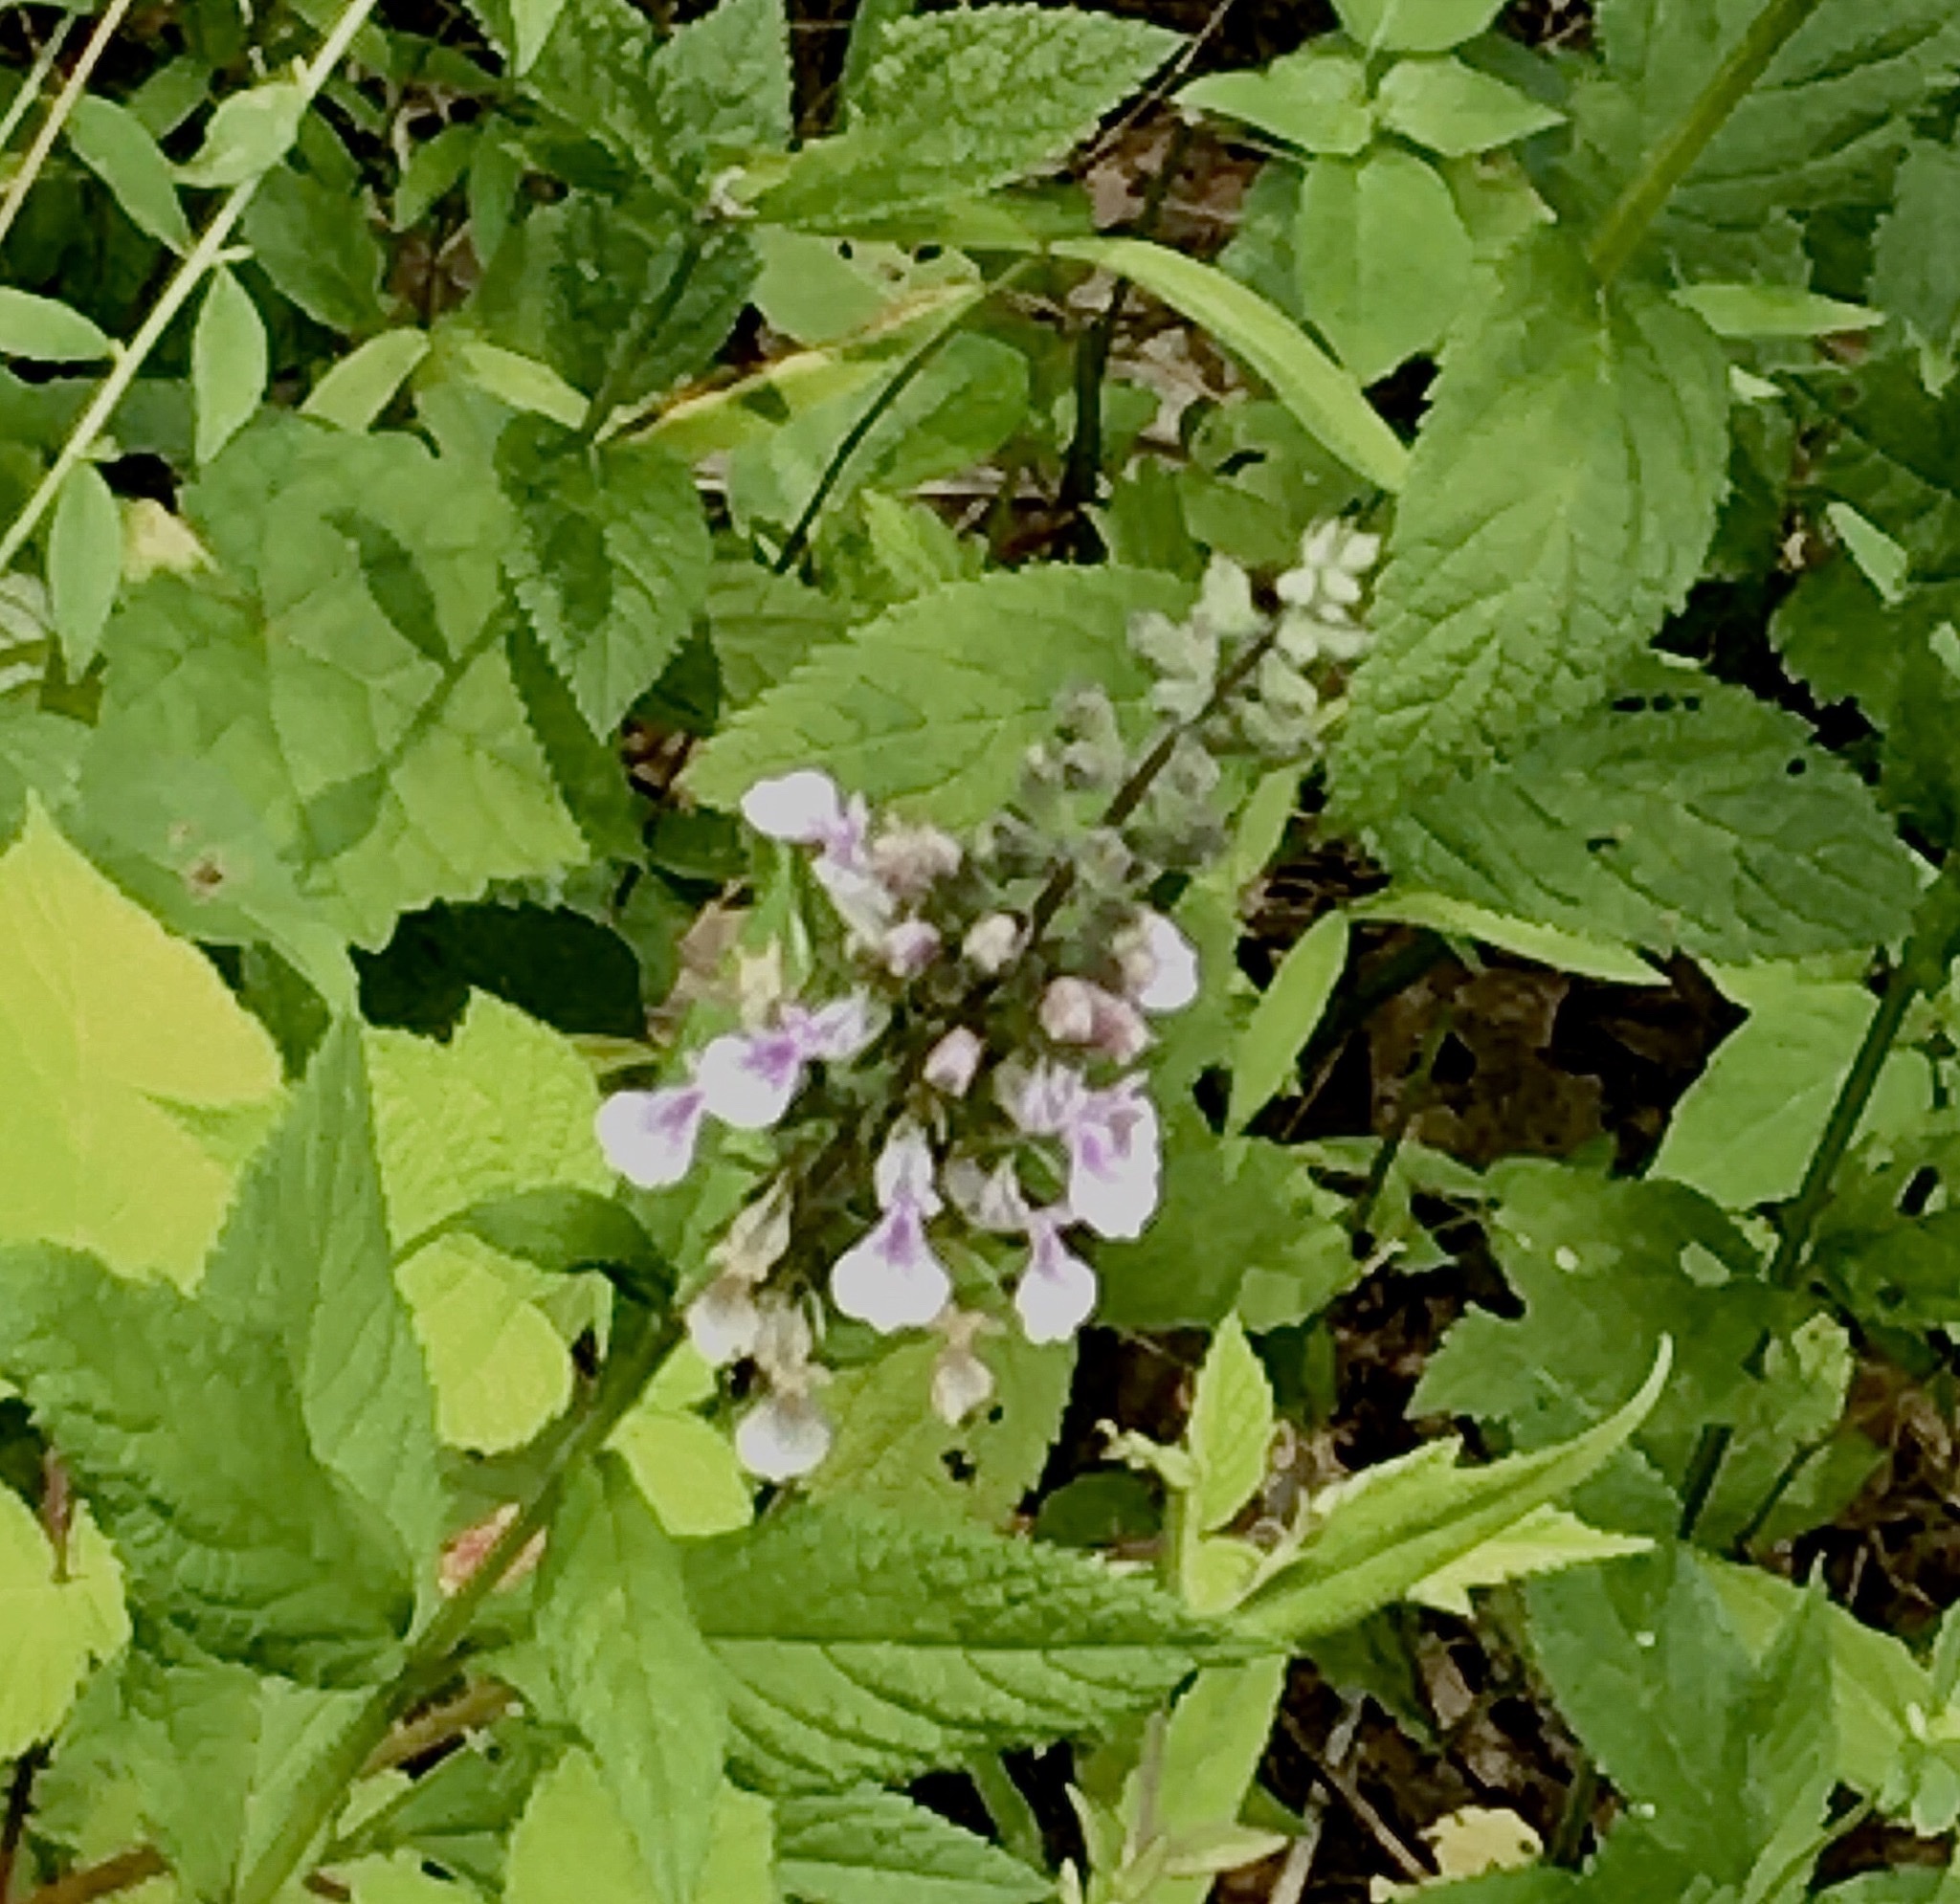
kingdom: Plantae
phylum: Tracheophyta
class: Magnoliopsida
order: Lamiales
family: Lamiaceae
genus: Teucrium
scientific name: Teucrium canadense
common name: American germander
